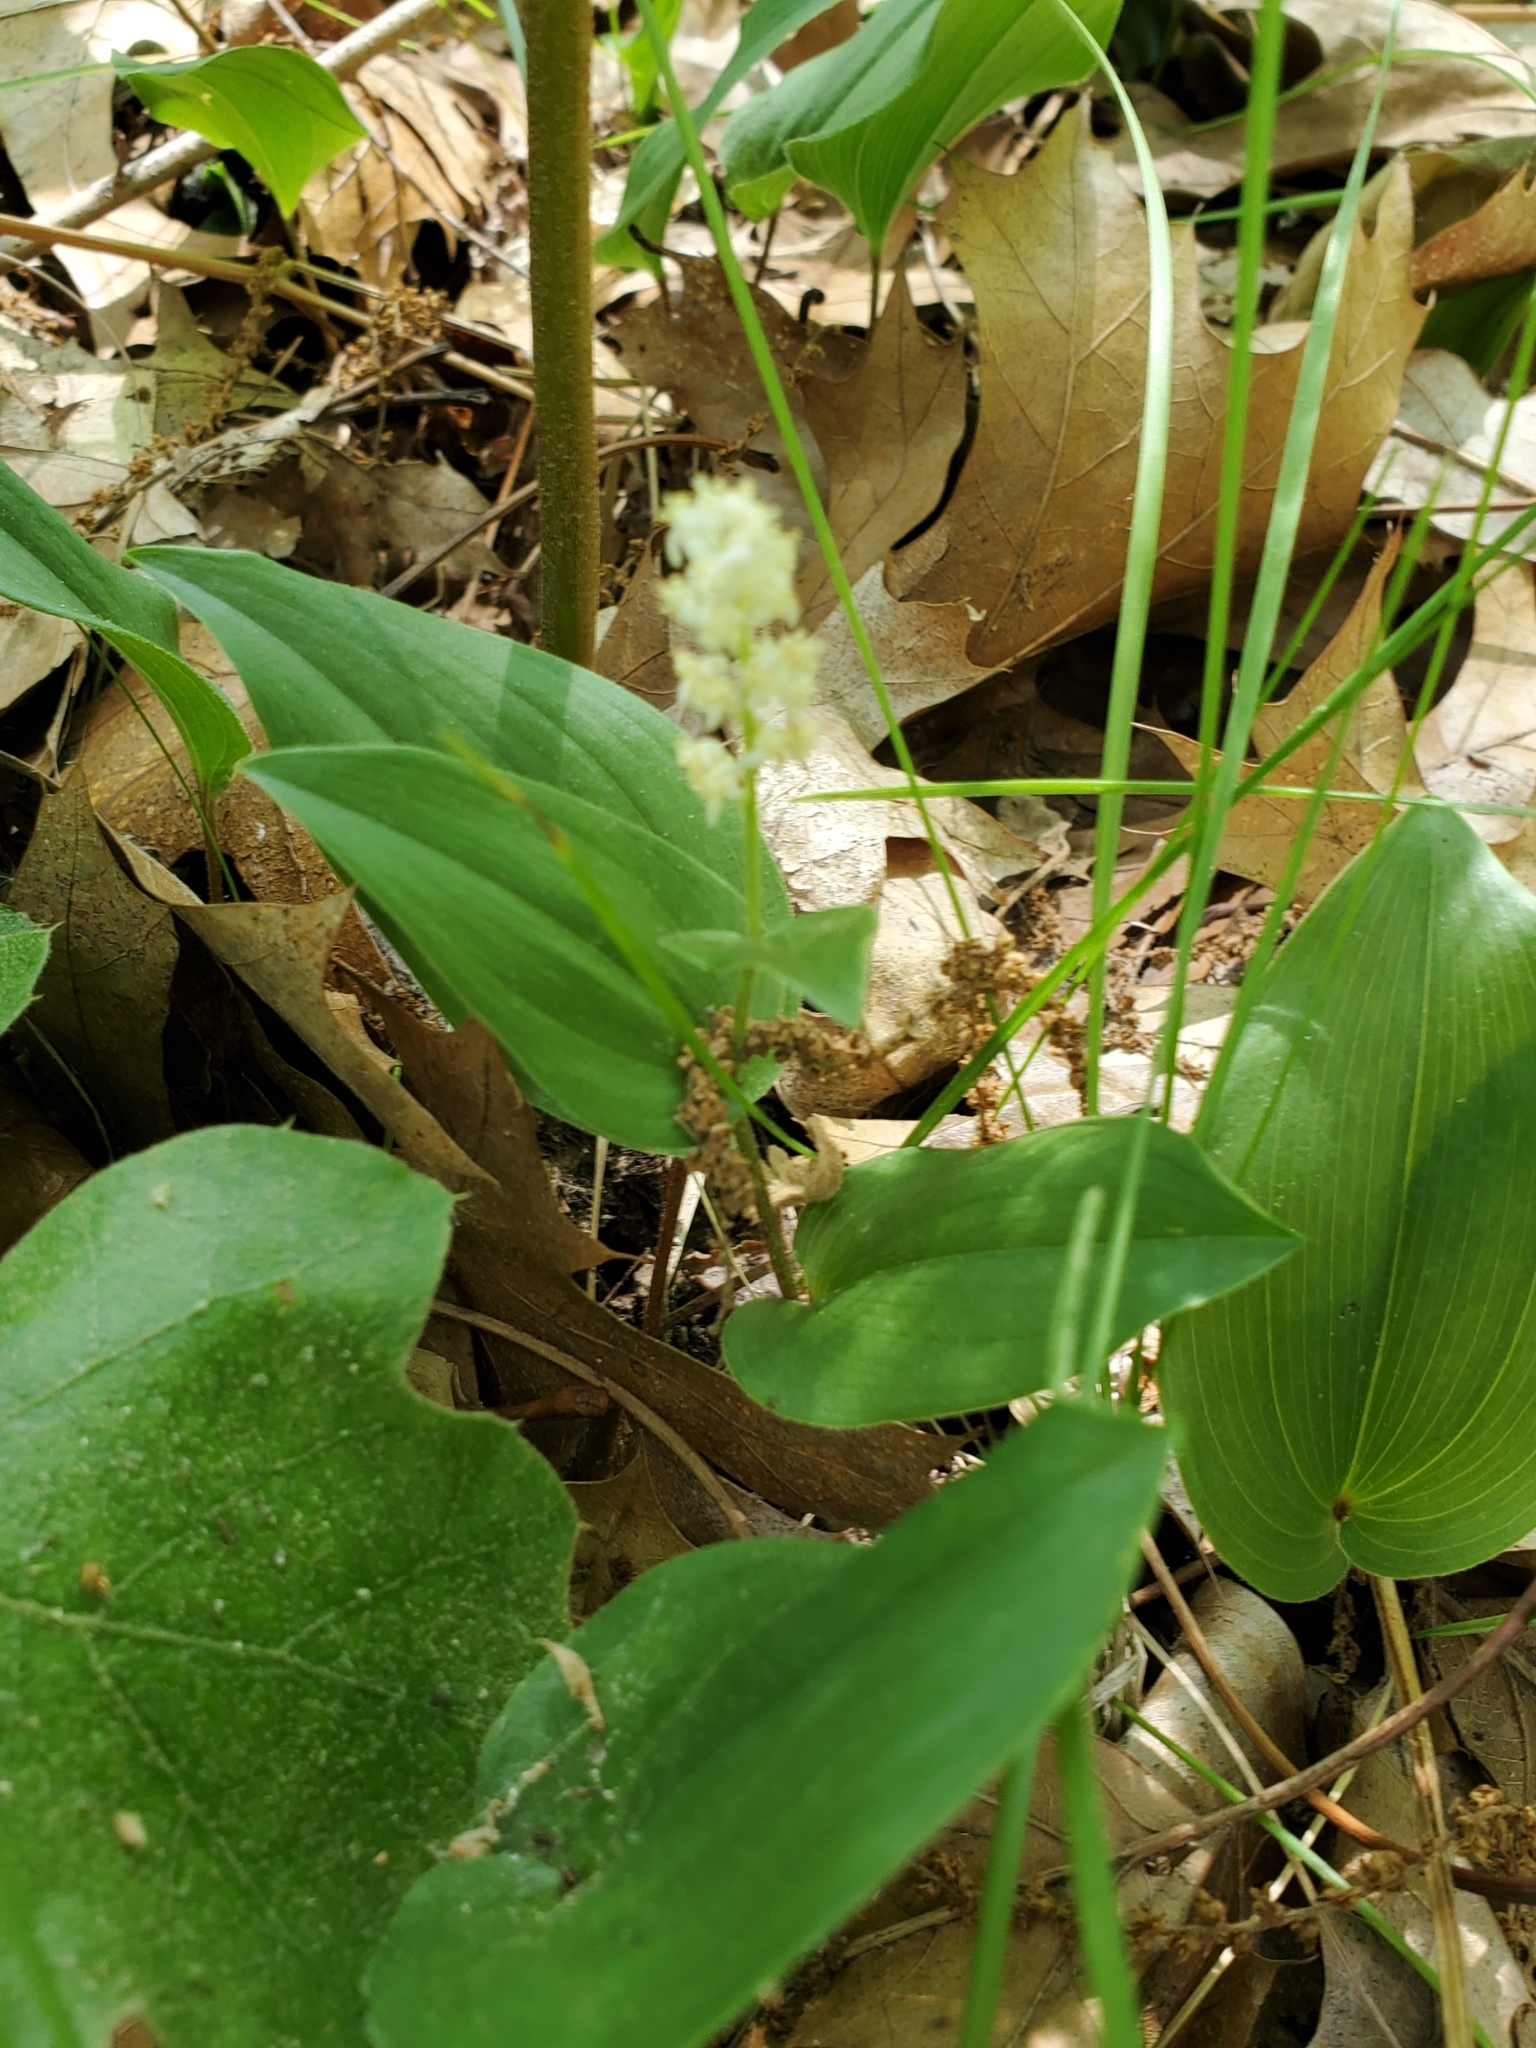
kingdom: Plantae
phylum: Tracheophyta
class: Liliopsida
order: Asparagales
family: Asparagaceae
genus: Maianthemum
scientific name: Maianthemum canadense
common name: False lily-of-the-valley
